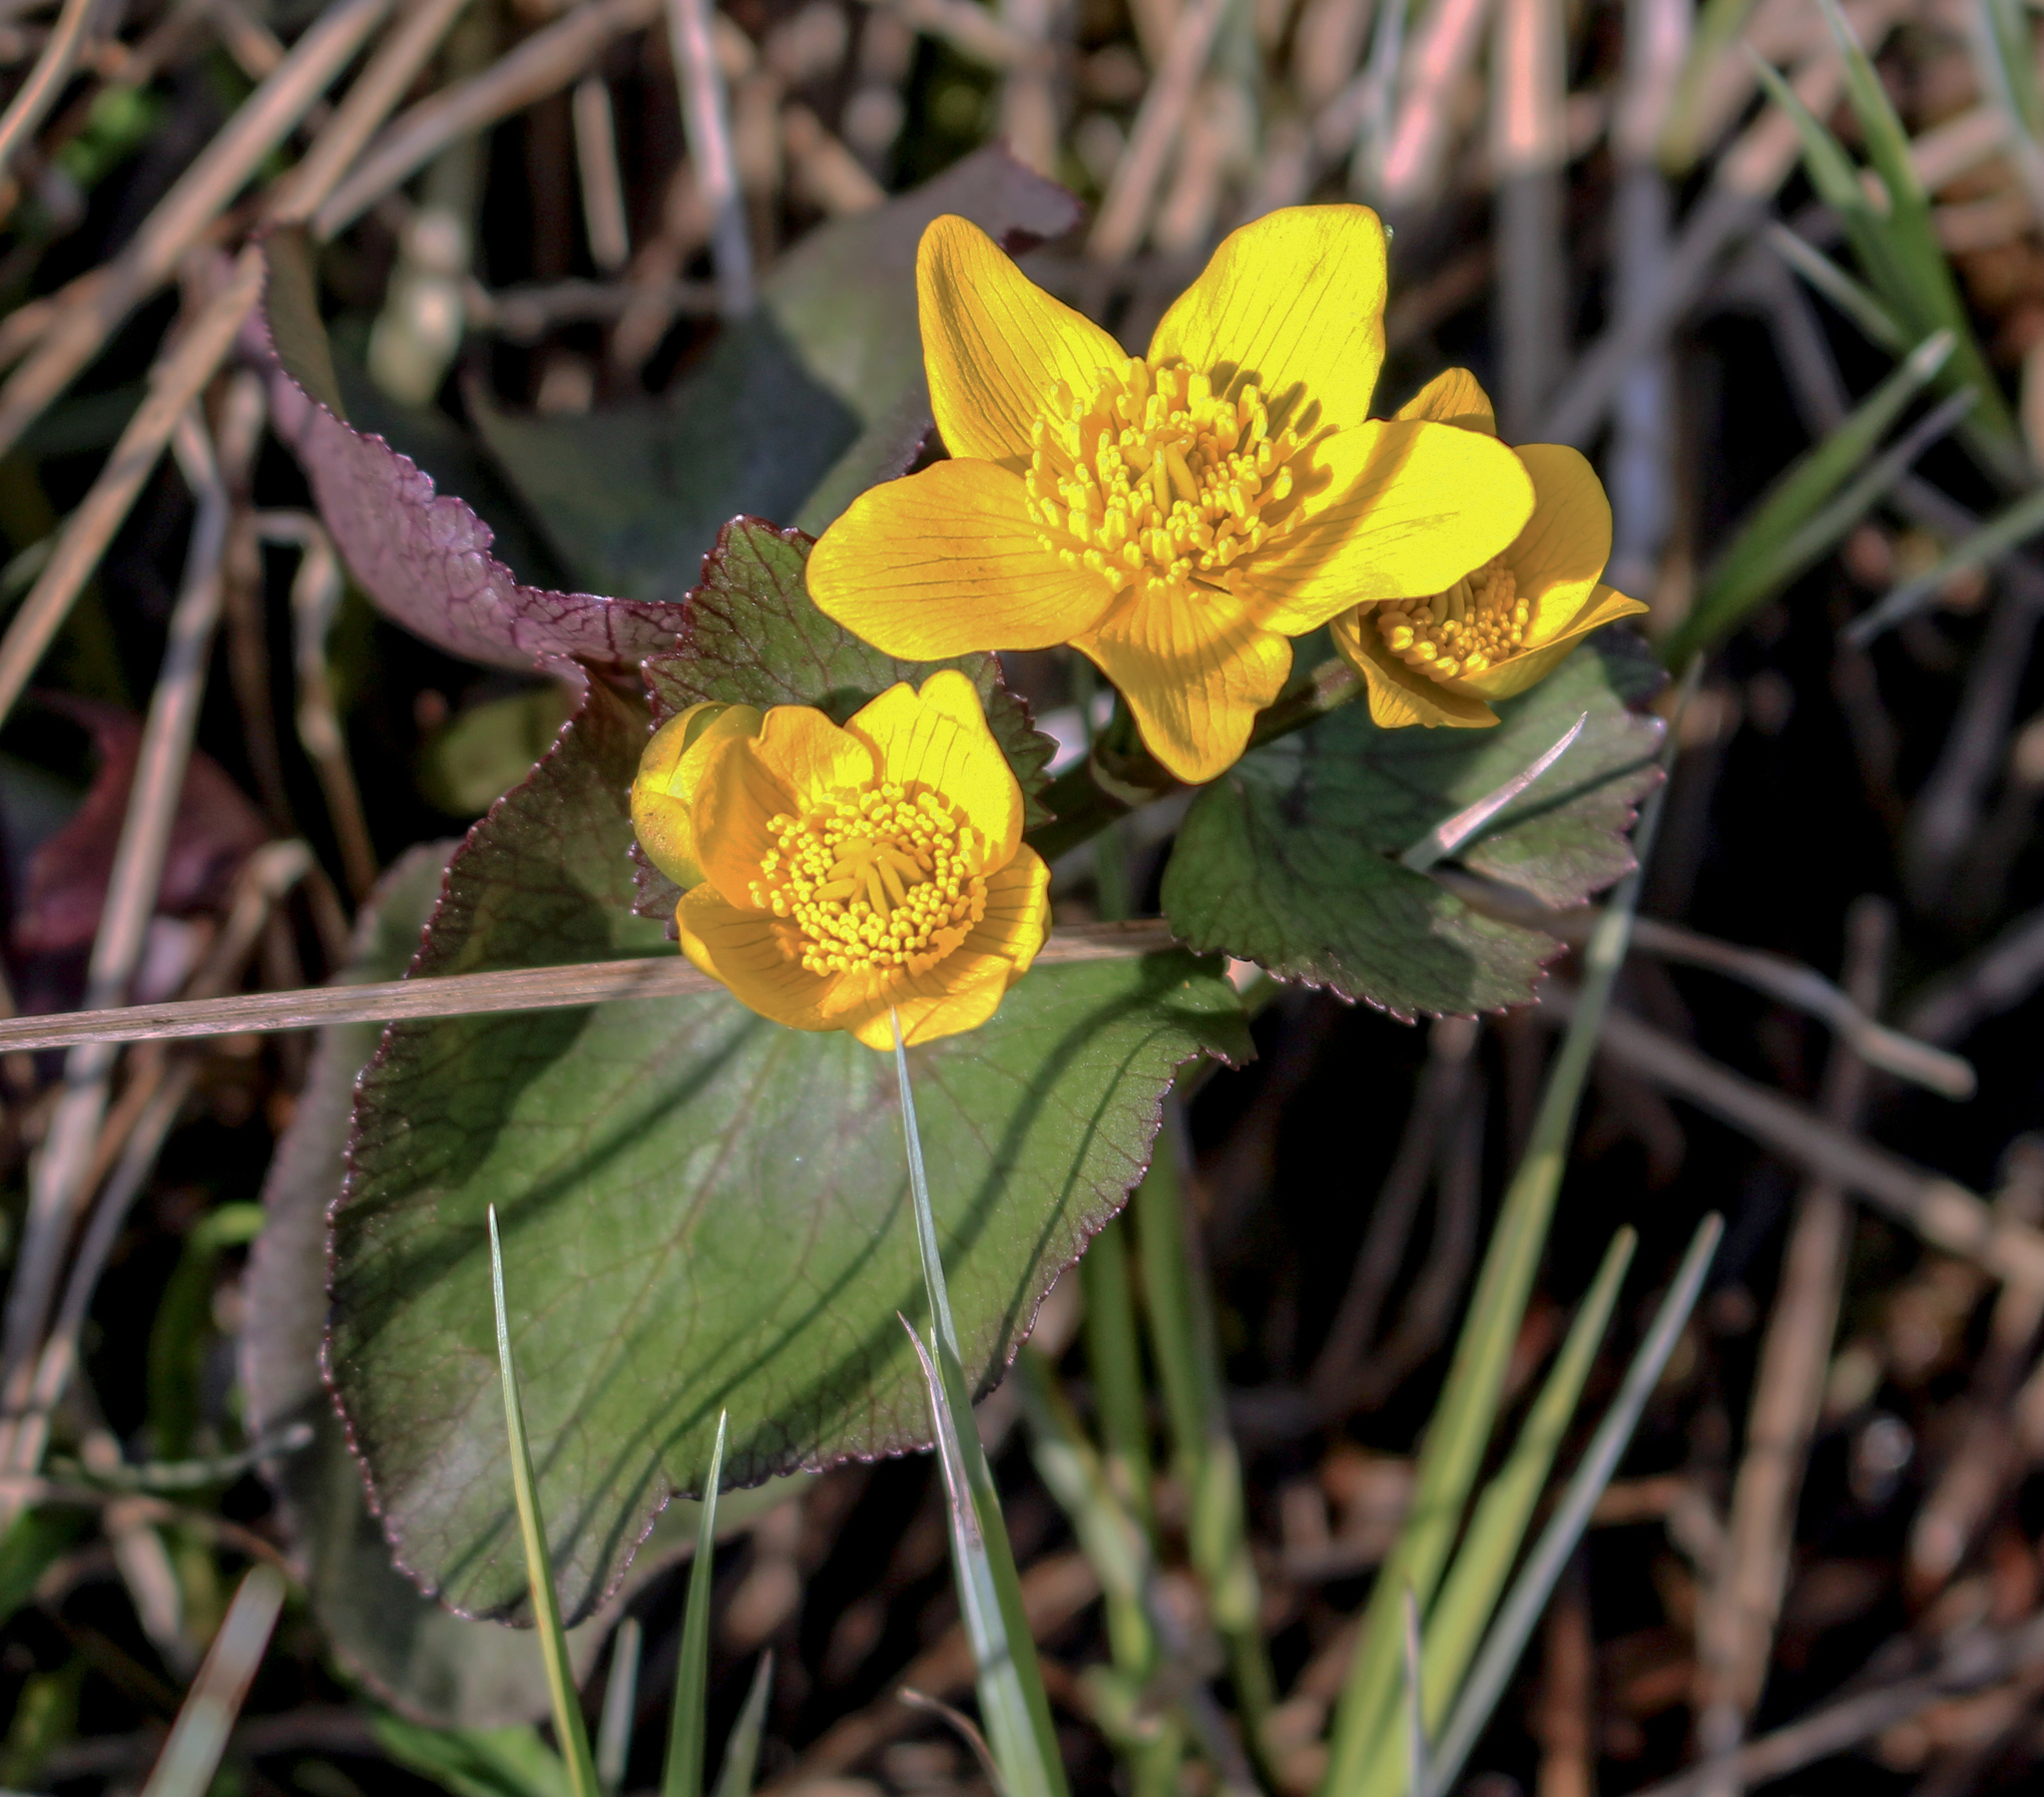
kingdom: Plantae
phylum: Tracheophyta
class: Magnoliopsida
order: Ranunculales
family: Ranunculaceae
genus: Caltha
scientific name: Caltha palustris
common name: Marsh marigold
